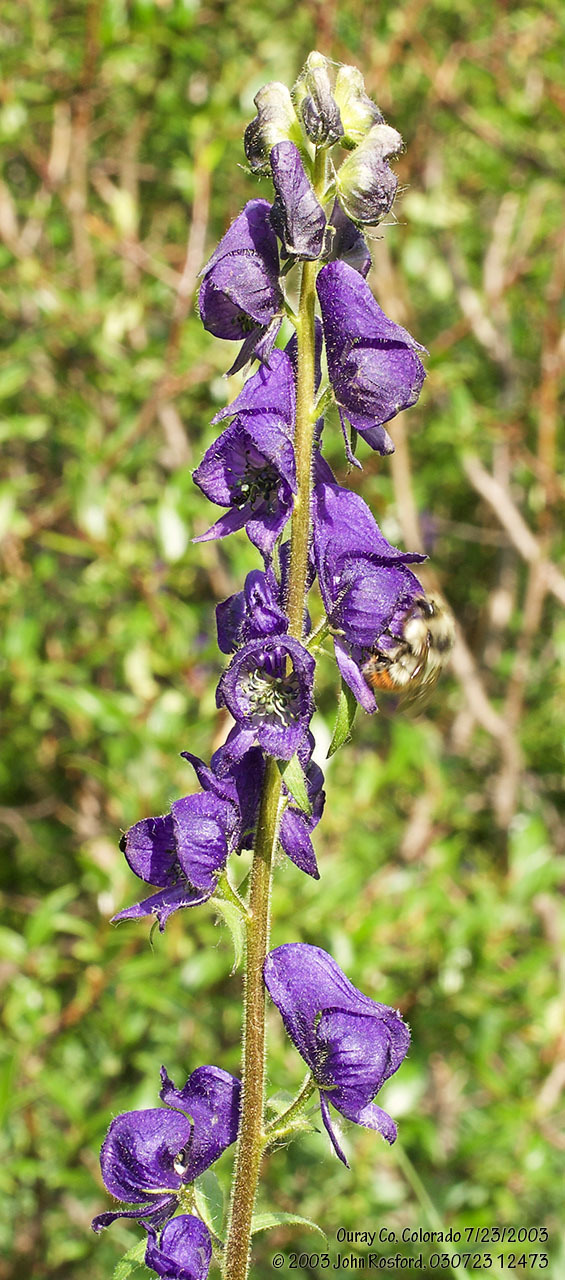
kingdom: Plantae
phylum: Tracheophyta
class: Magnoliopsida
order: Ranunculales
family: Ranunculaceae
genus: Aconitum
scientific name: Aconitum columbianum
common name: Columbia aconite
